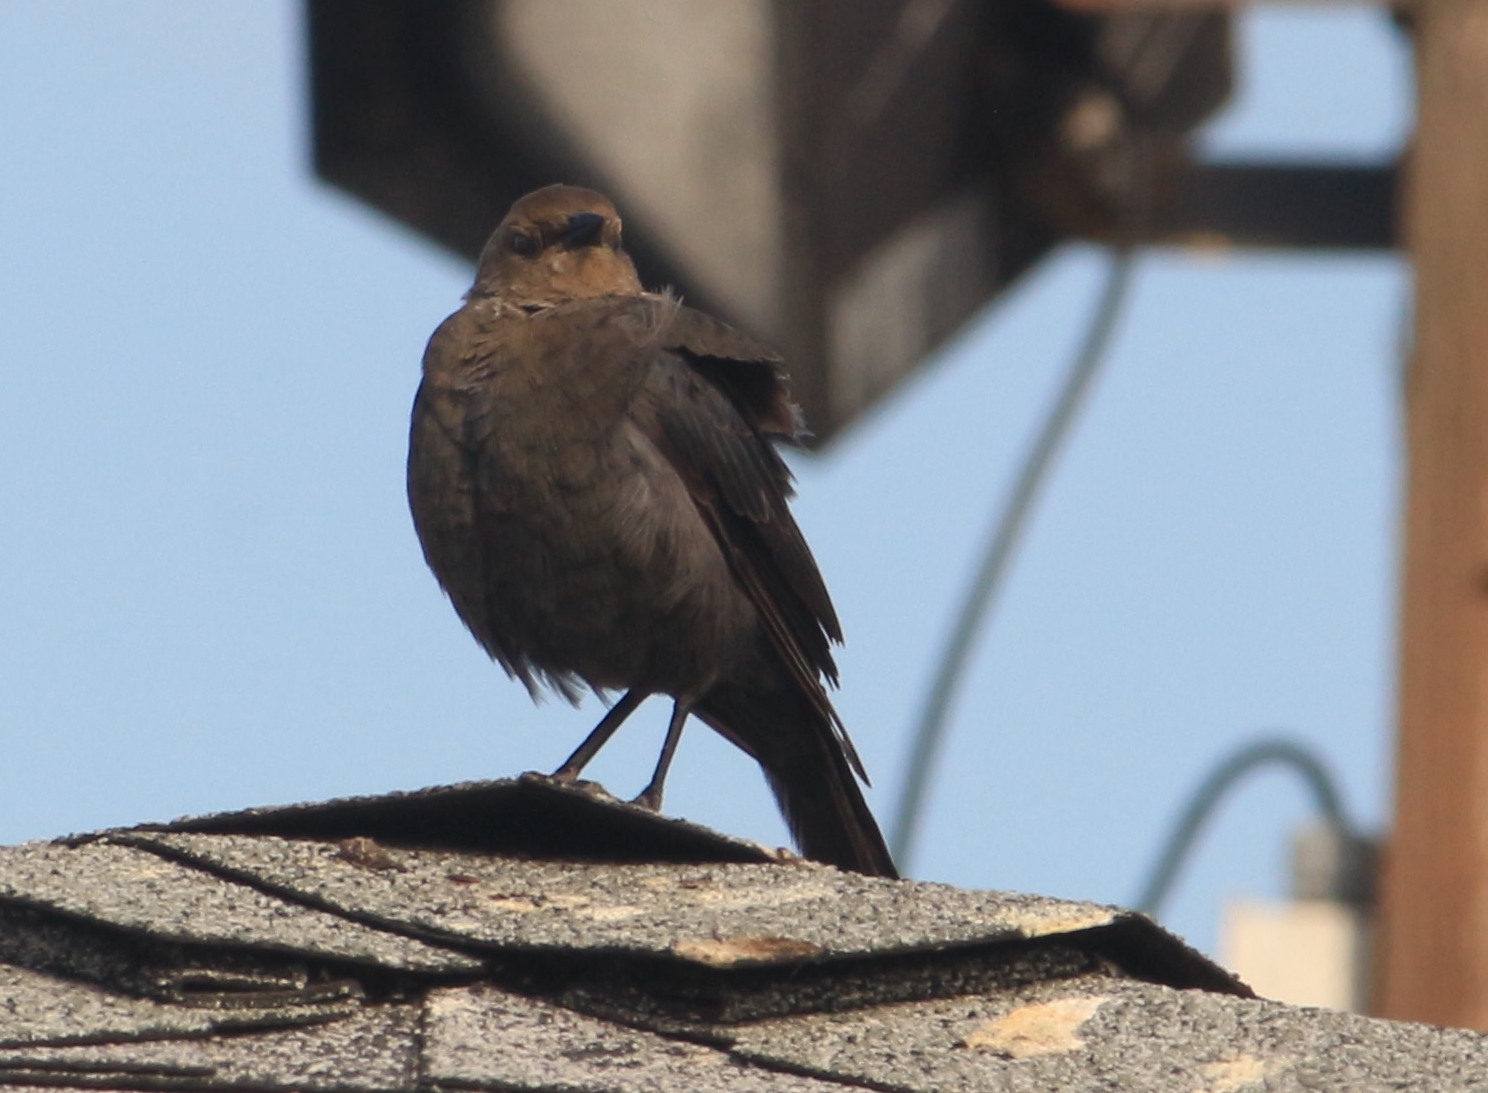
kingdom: Animalia
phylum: Chordata
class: Aves
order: Passeriformes
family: Icteridae
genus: Euphagus
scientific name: Euphagus cyanocephalus
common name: Brewer's blackbird
